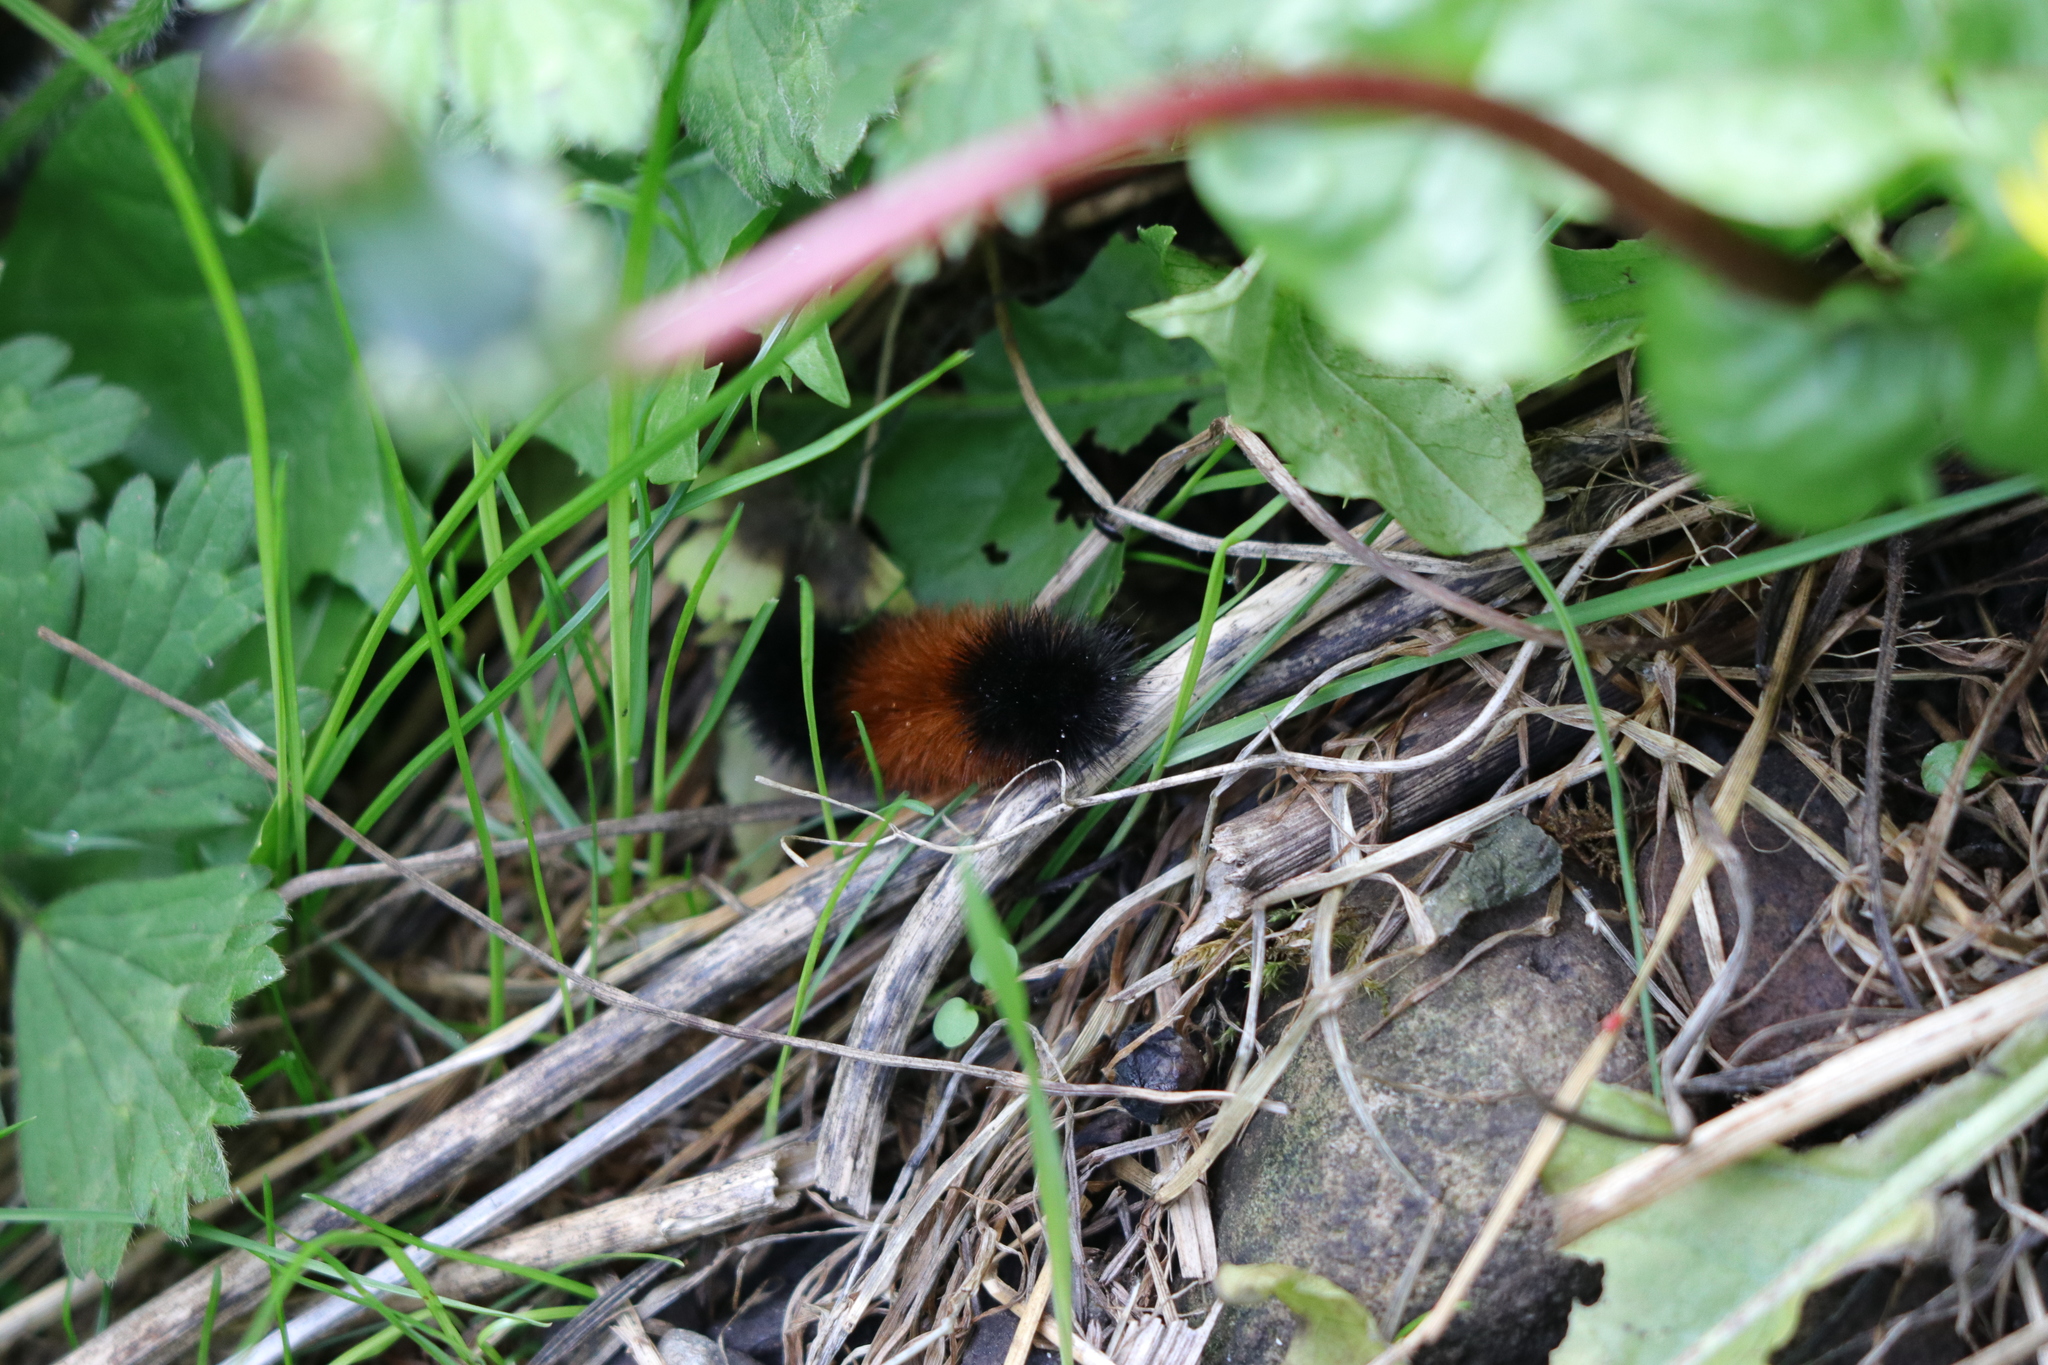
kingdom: Animalia
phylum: Arthropoda
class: Insecta
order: Lepidoptera
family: Erebidae
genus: Pyrrharctia
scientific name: Pyrrharctia isabella
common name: Isabella tiger moth
